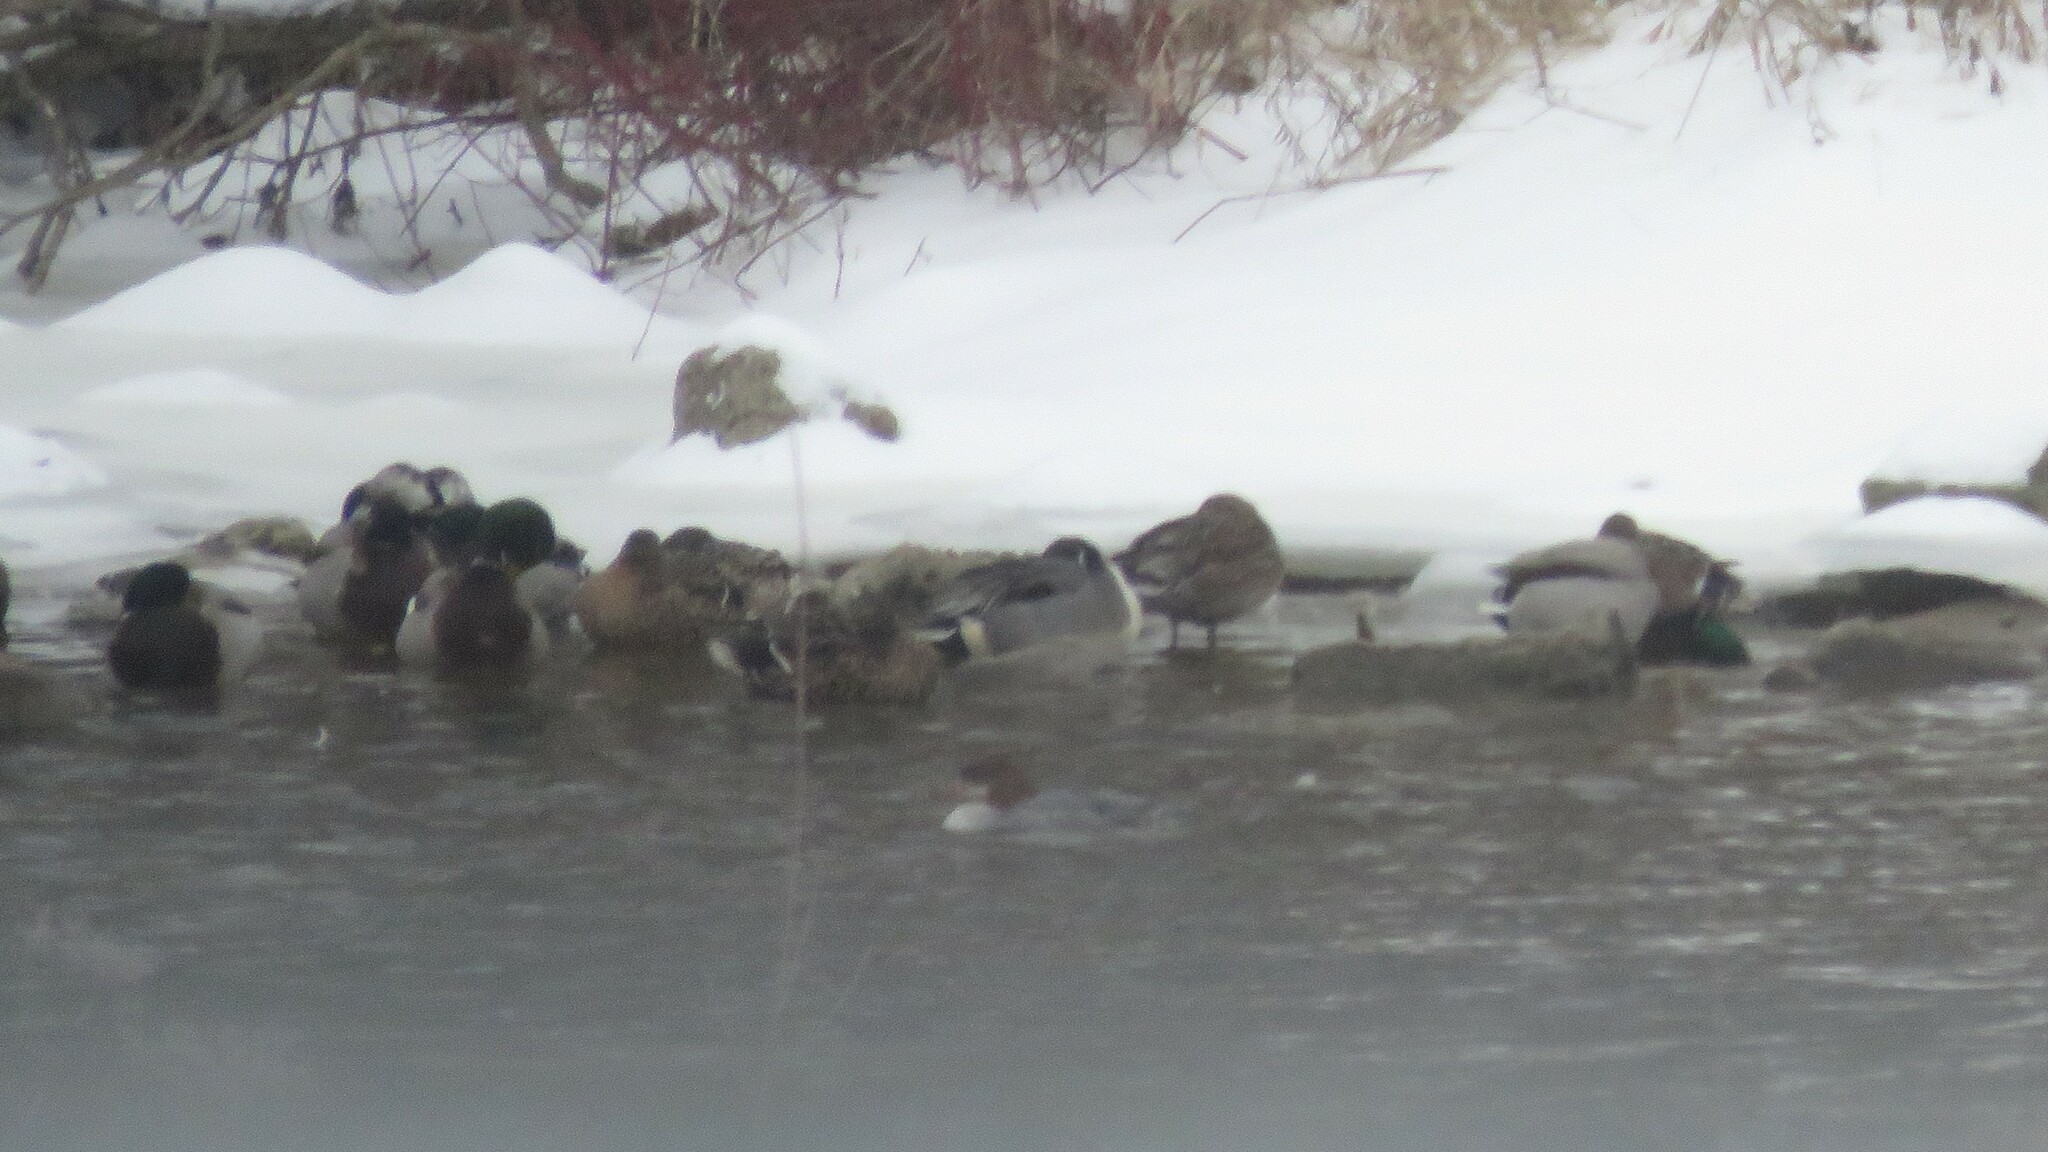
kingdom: Animalia
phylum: Chordata
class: Aves
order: Anseriformes
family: Anatidae
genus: Anas
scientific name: Anas acuta
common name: Northern pintail
